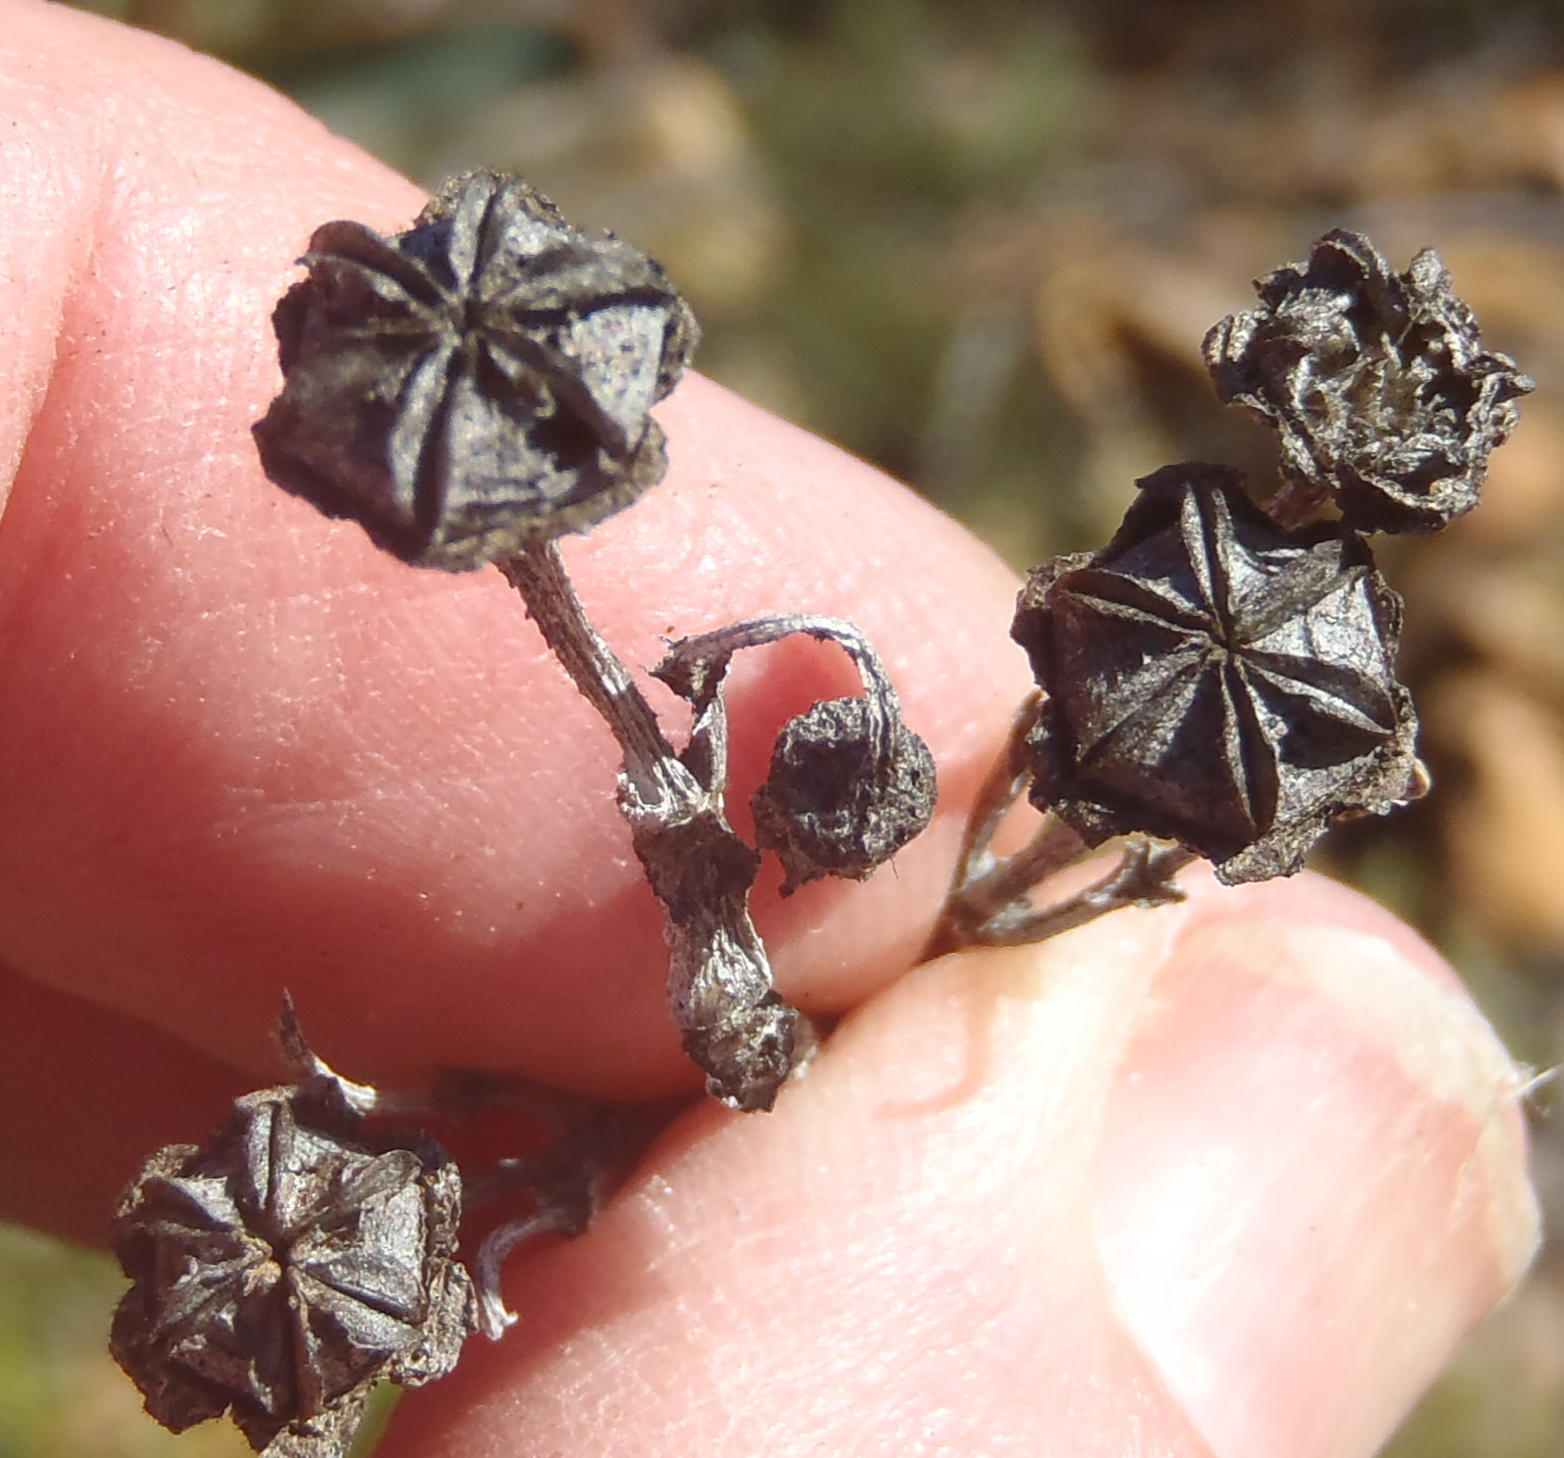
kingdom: Plantae
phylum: Tracheophyta
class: Magnoliopsida
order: Caryophyllales
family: Aizoaceae
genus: Ruschia
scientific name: Ruschia congesta
